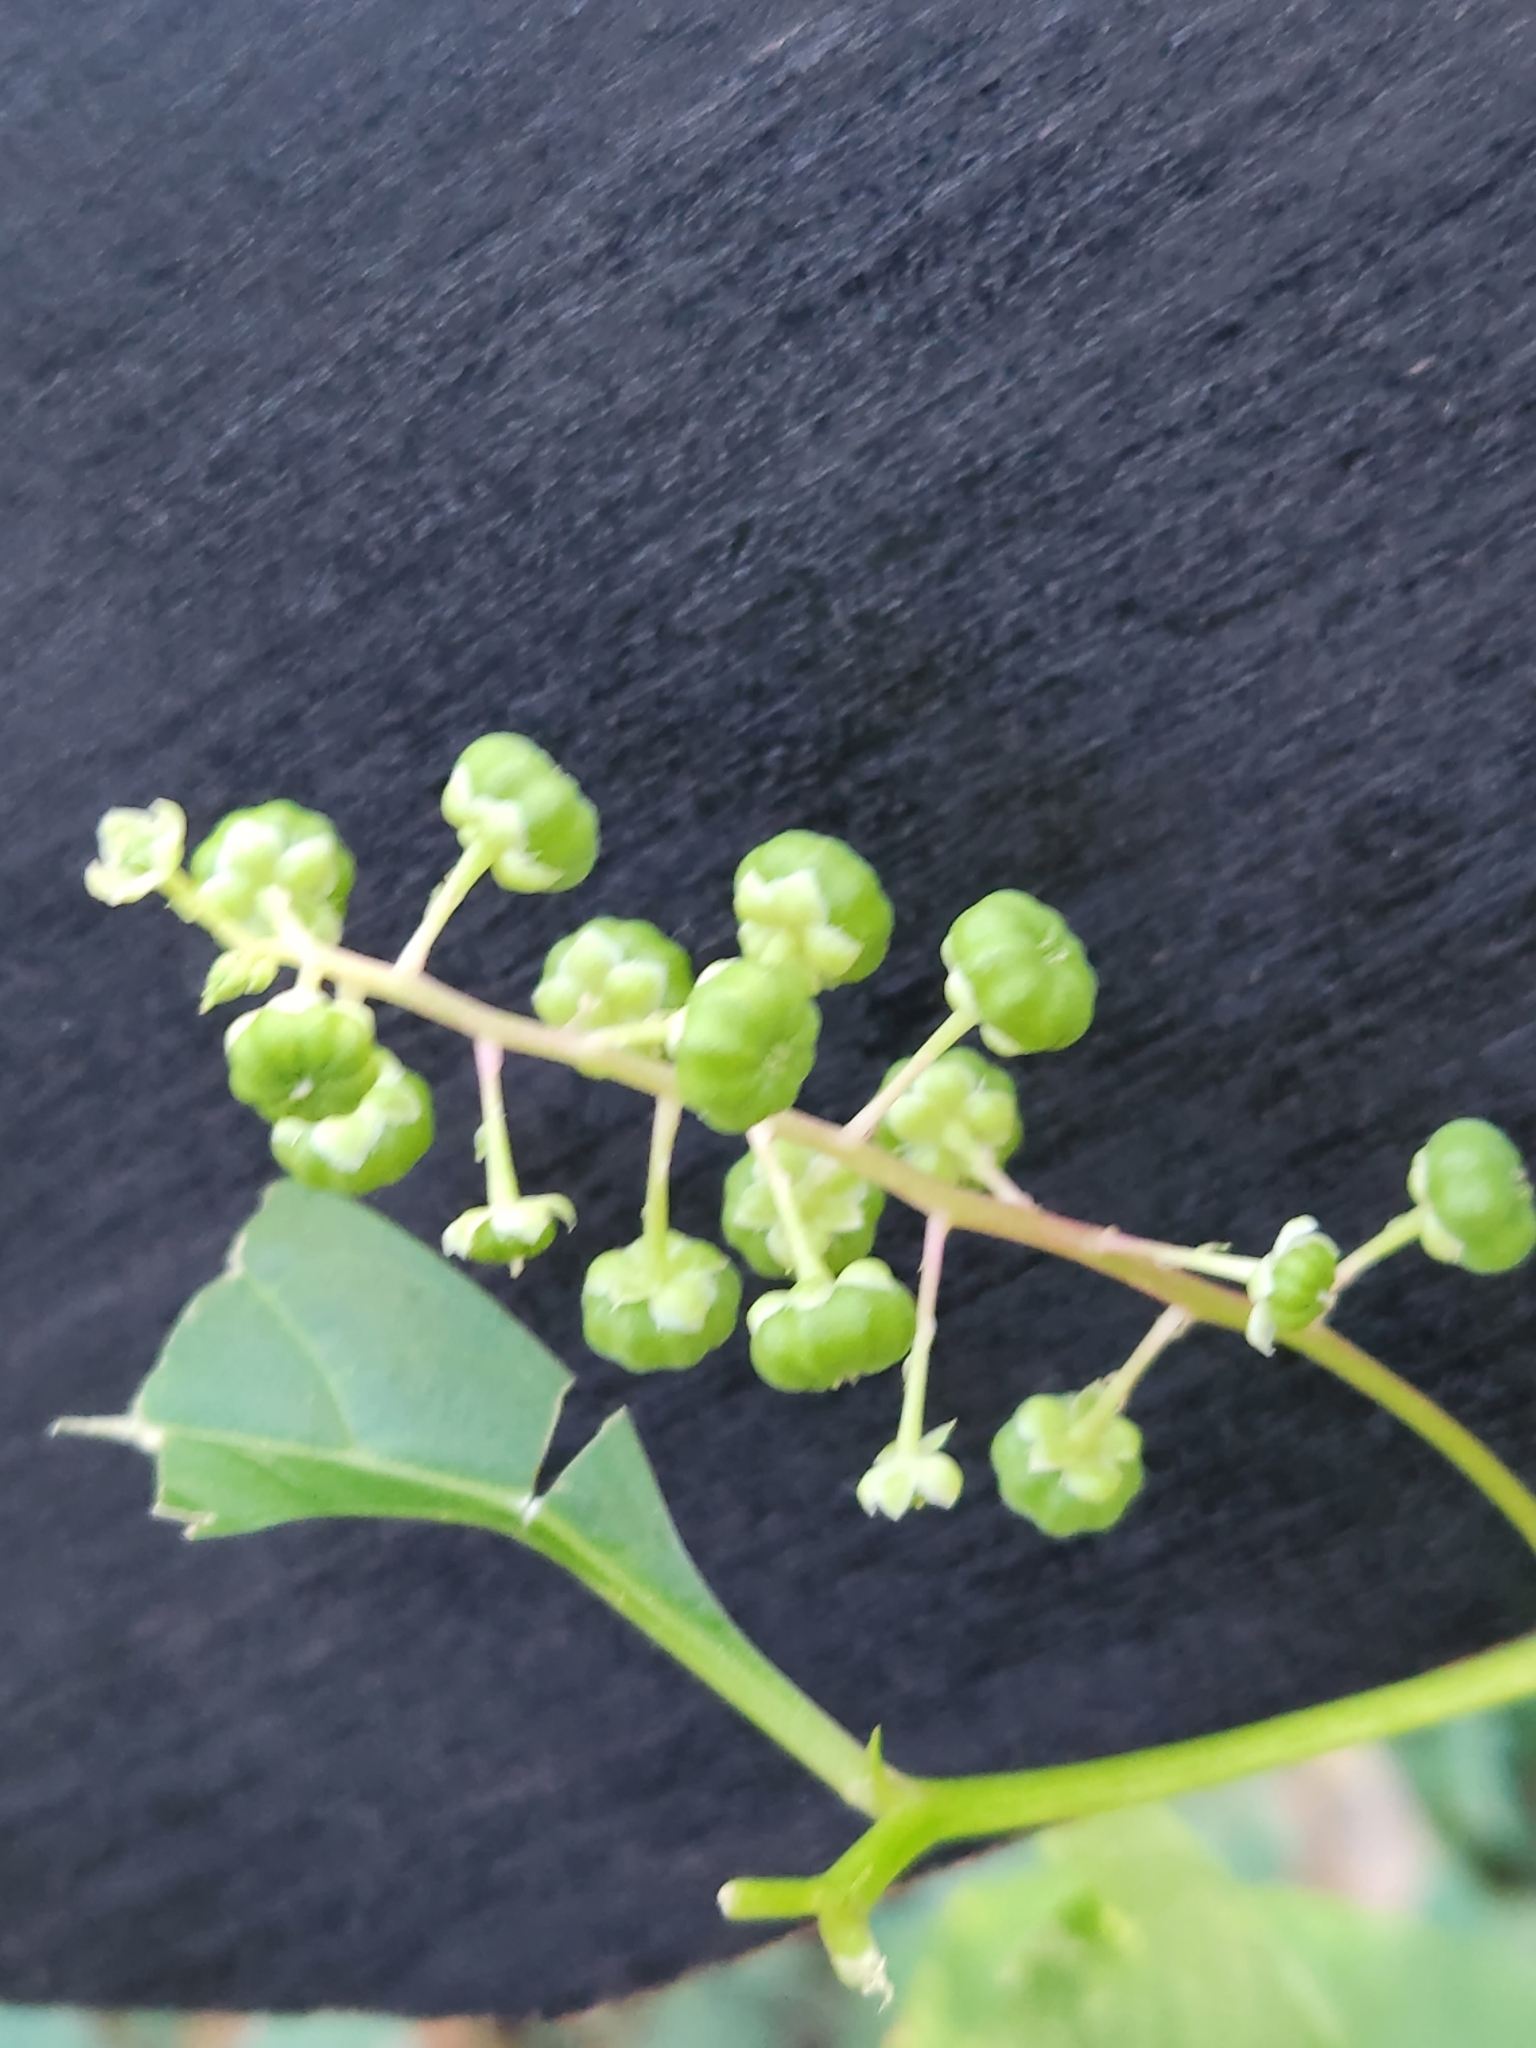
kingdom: Plantae
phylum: Tracheophyta
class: Magnoliopsida
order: Caryophyllales
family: Phytolaccaceae
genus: Phytolacca
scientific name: Phytolacca americana
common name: American pokeweed
